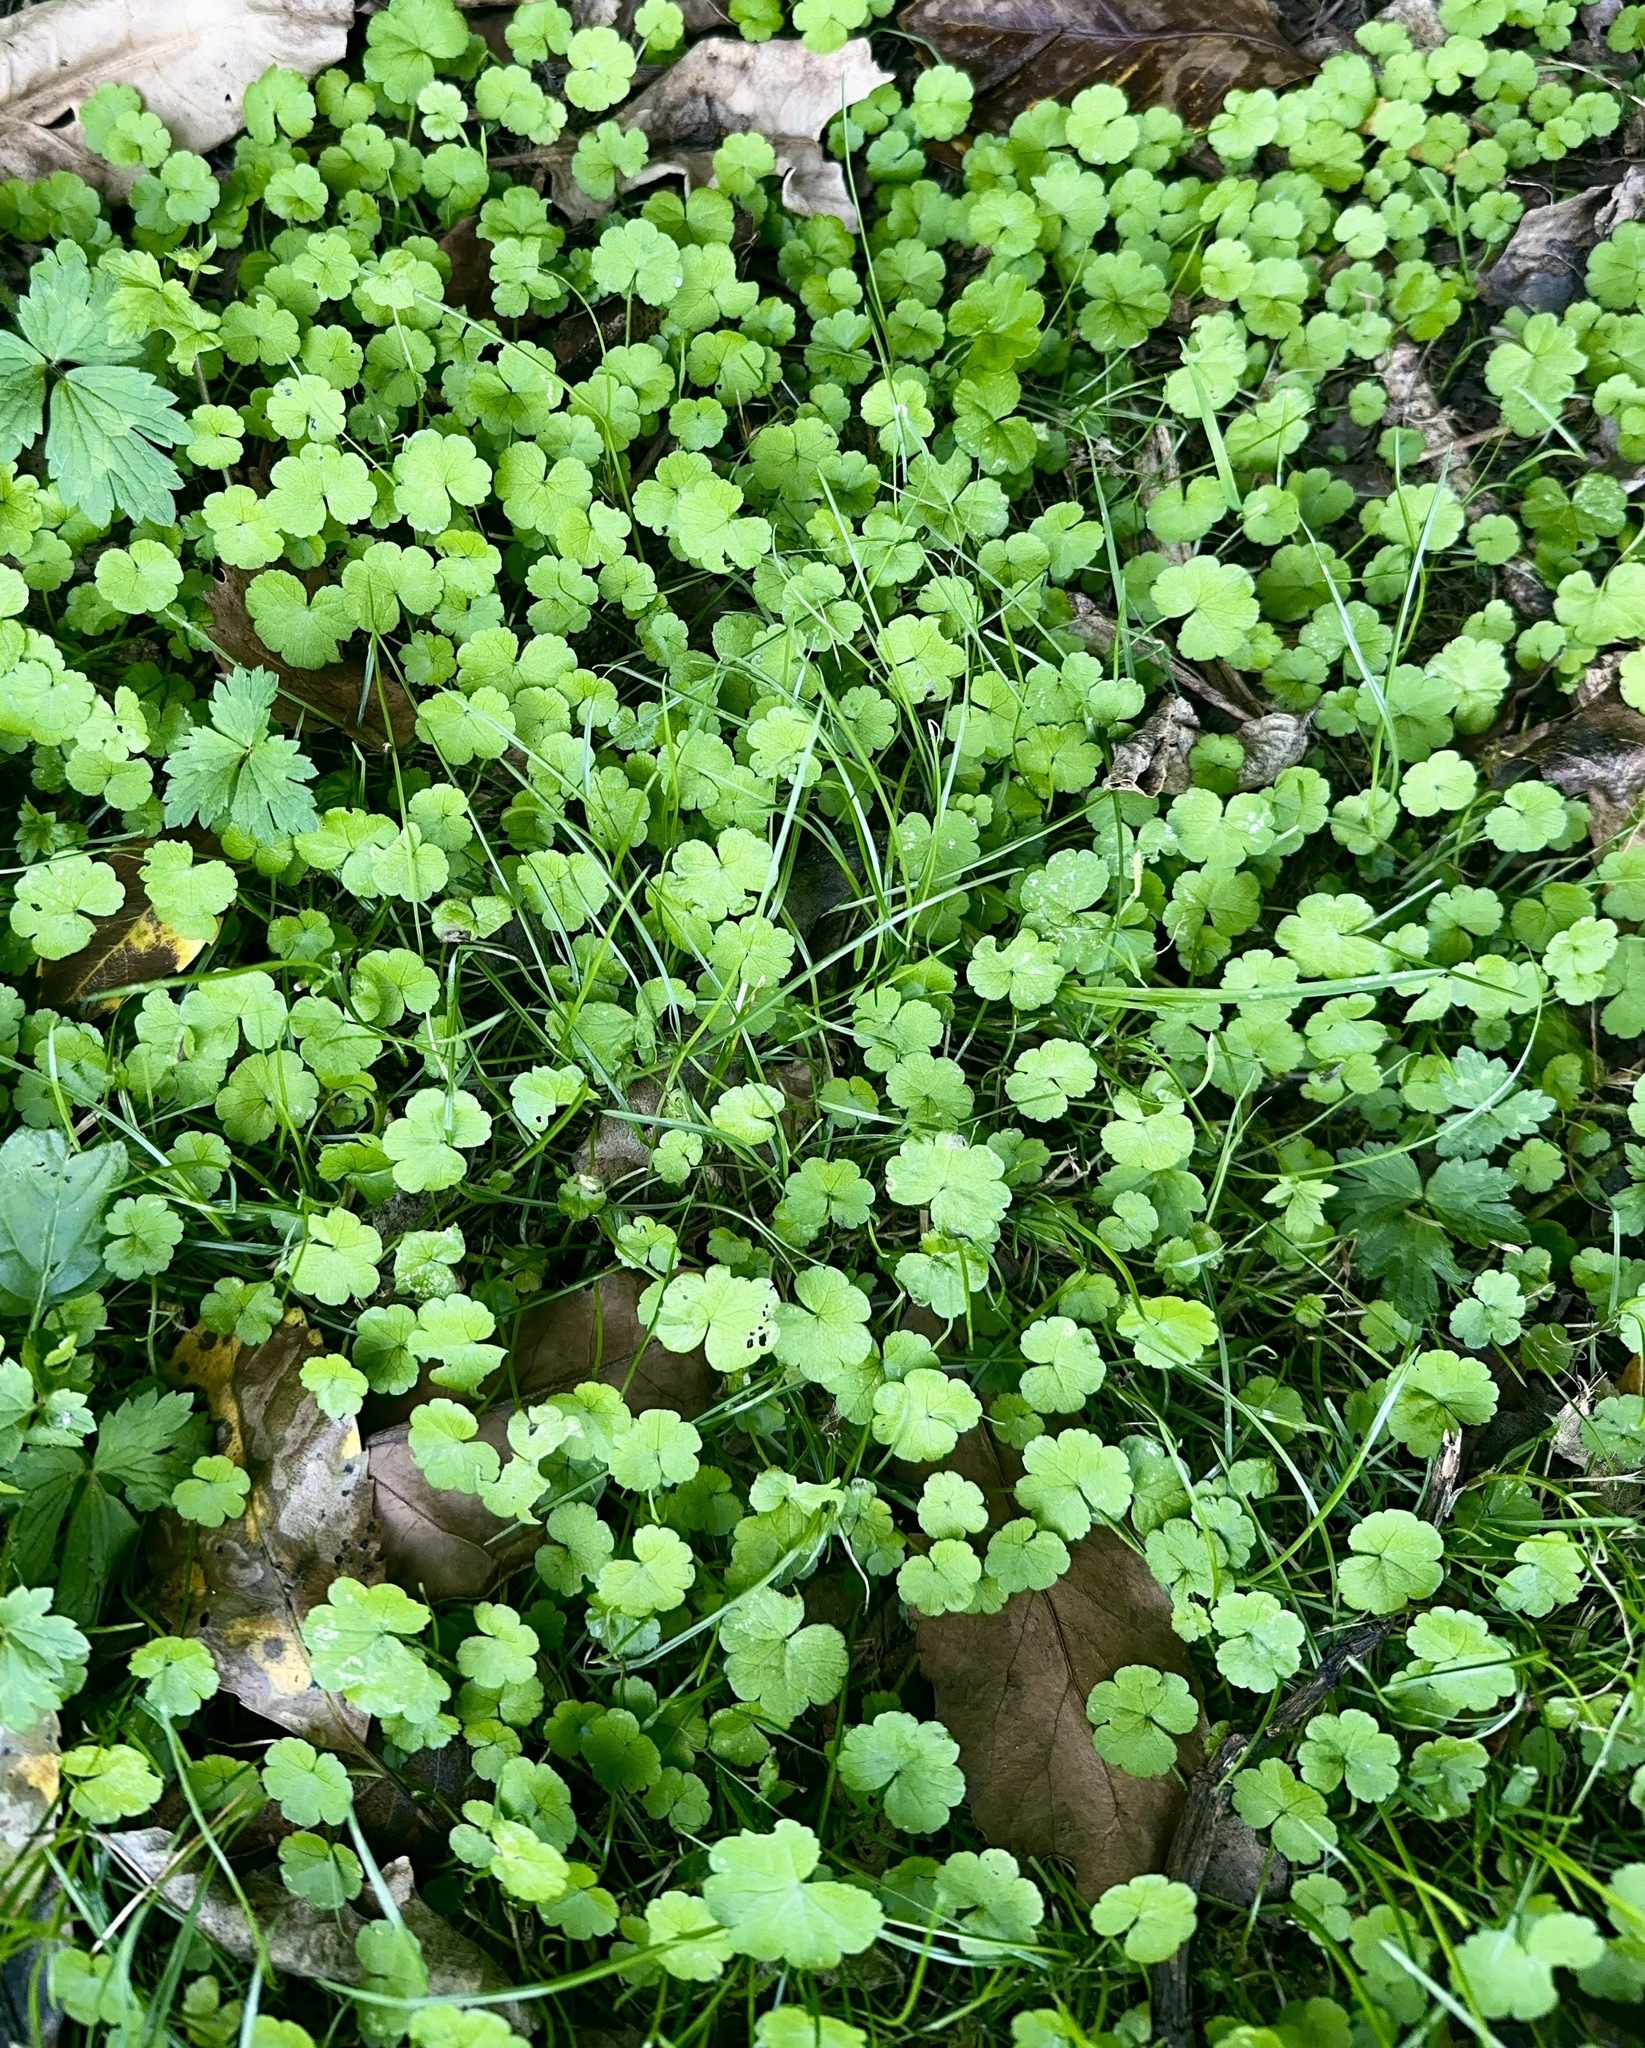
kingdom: Plantae
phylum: Tracheophyta
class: Magnoliopsida
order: Apiales
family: Araliaceae
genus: Hydrocotyle
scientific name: Hydrocotyle heteromeria
